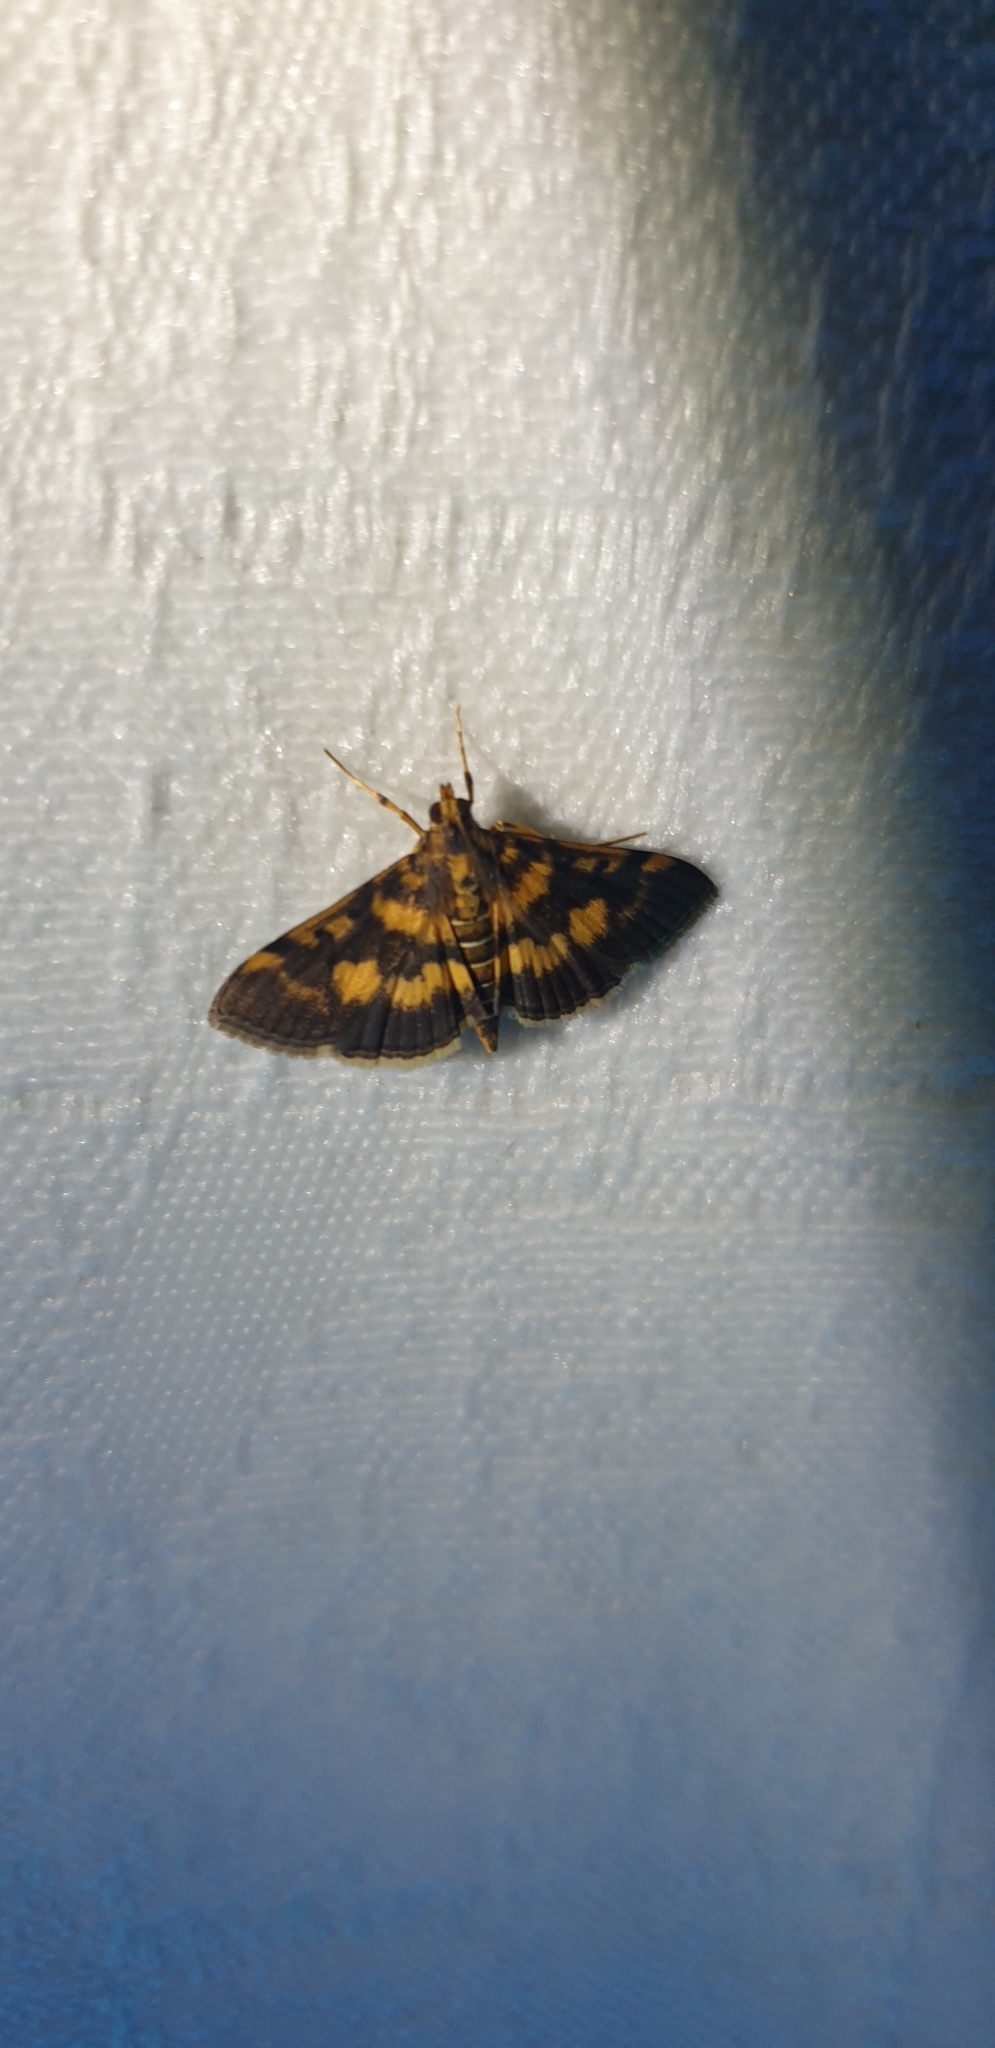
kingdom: Animalia
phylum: Arthropoda
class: Insecta
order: Lepidoptera
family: Crambidae
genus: Omiodes
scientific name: Omiodes diemenalis
